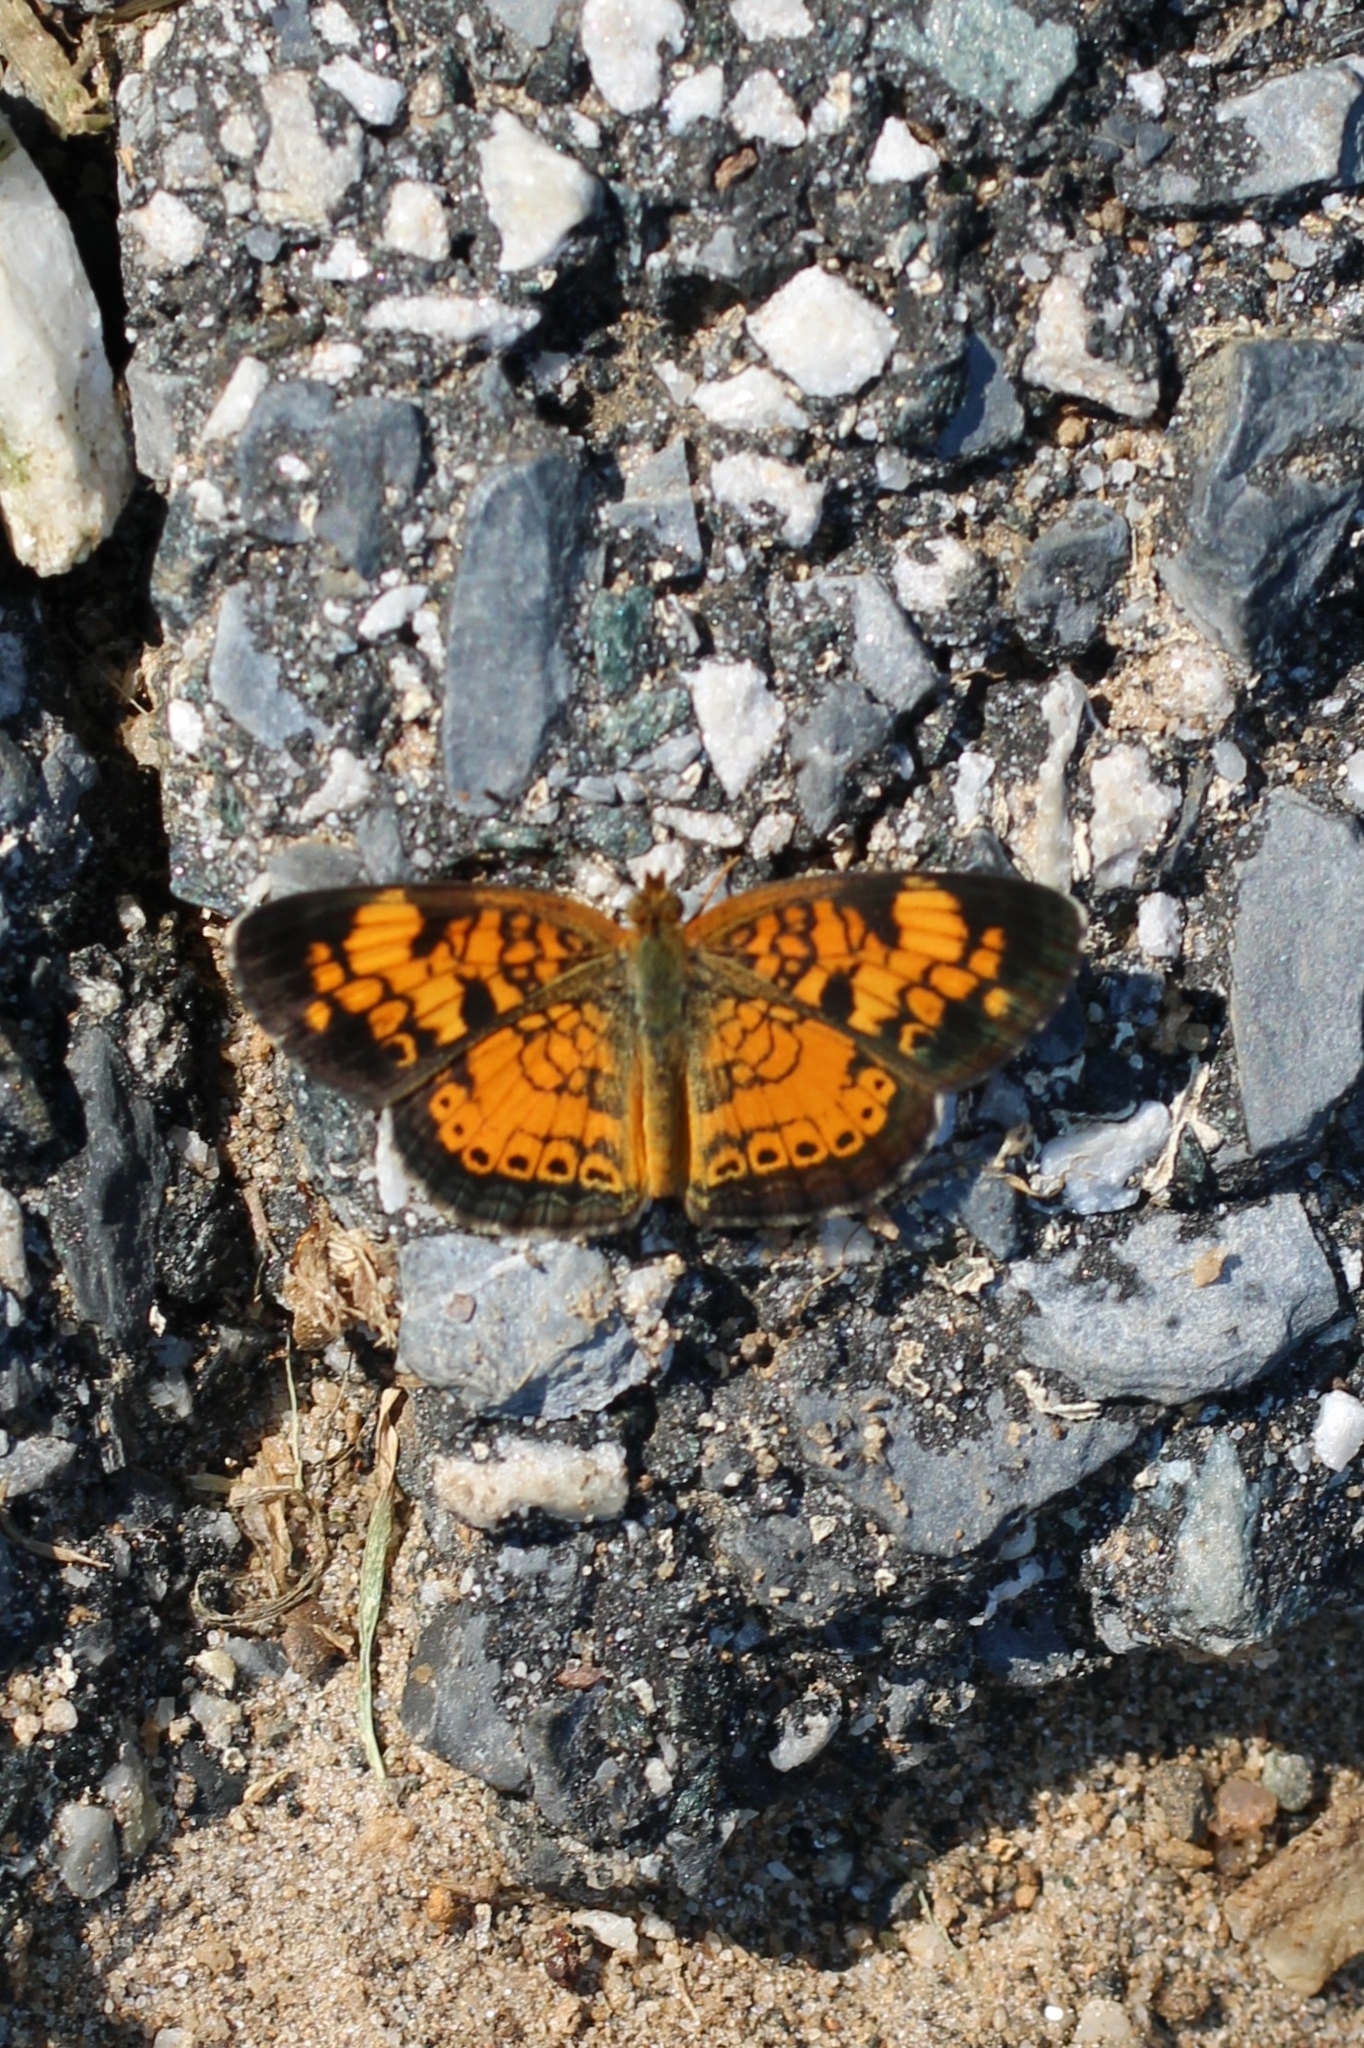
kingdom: Animalia
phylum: Arthropoda
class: Insecta
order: Lepidoptera
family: Nymphalidae
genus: Phyciodes
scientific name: Phyciodes tharos
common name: Pearl crescent
